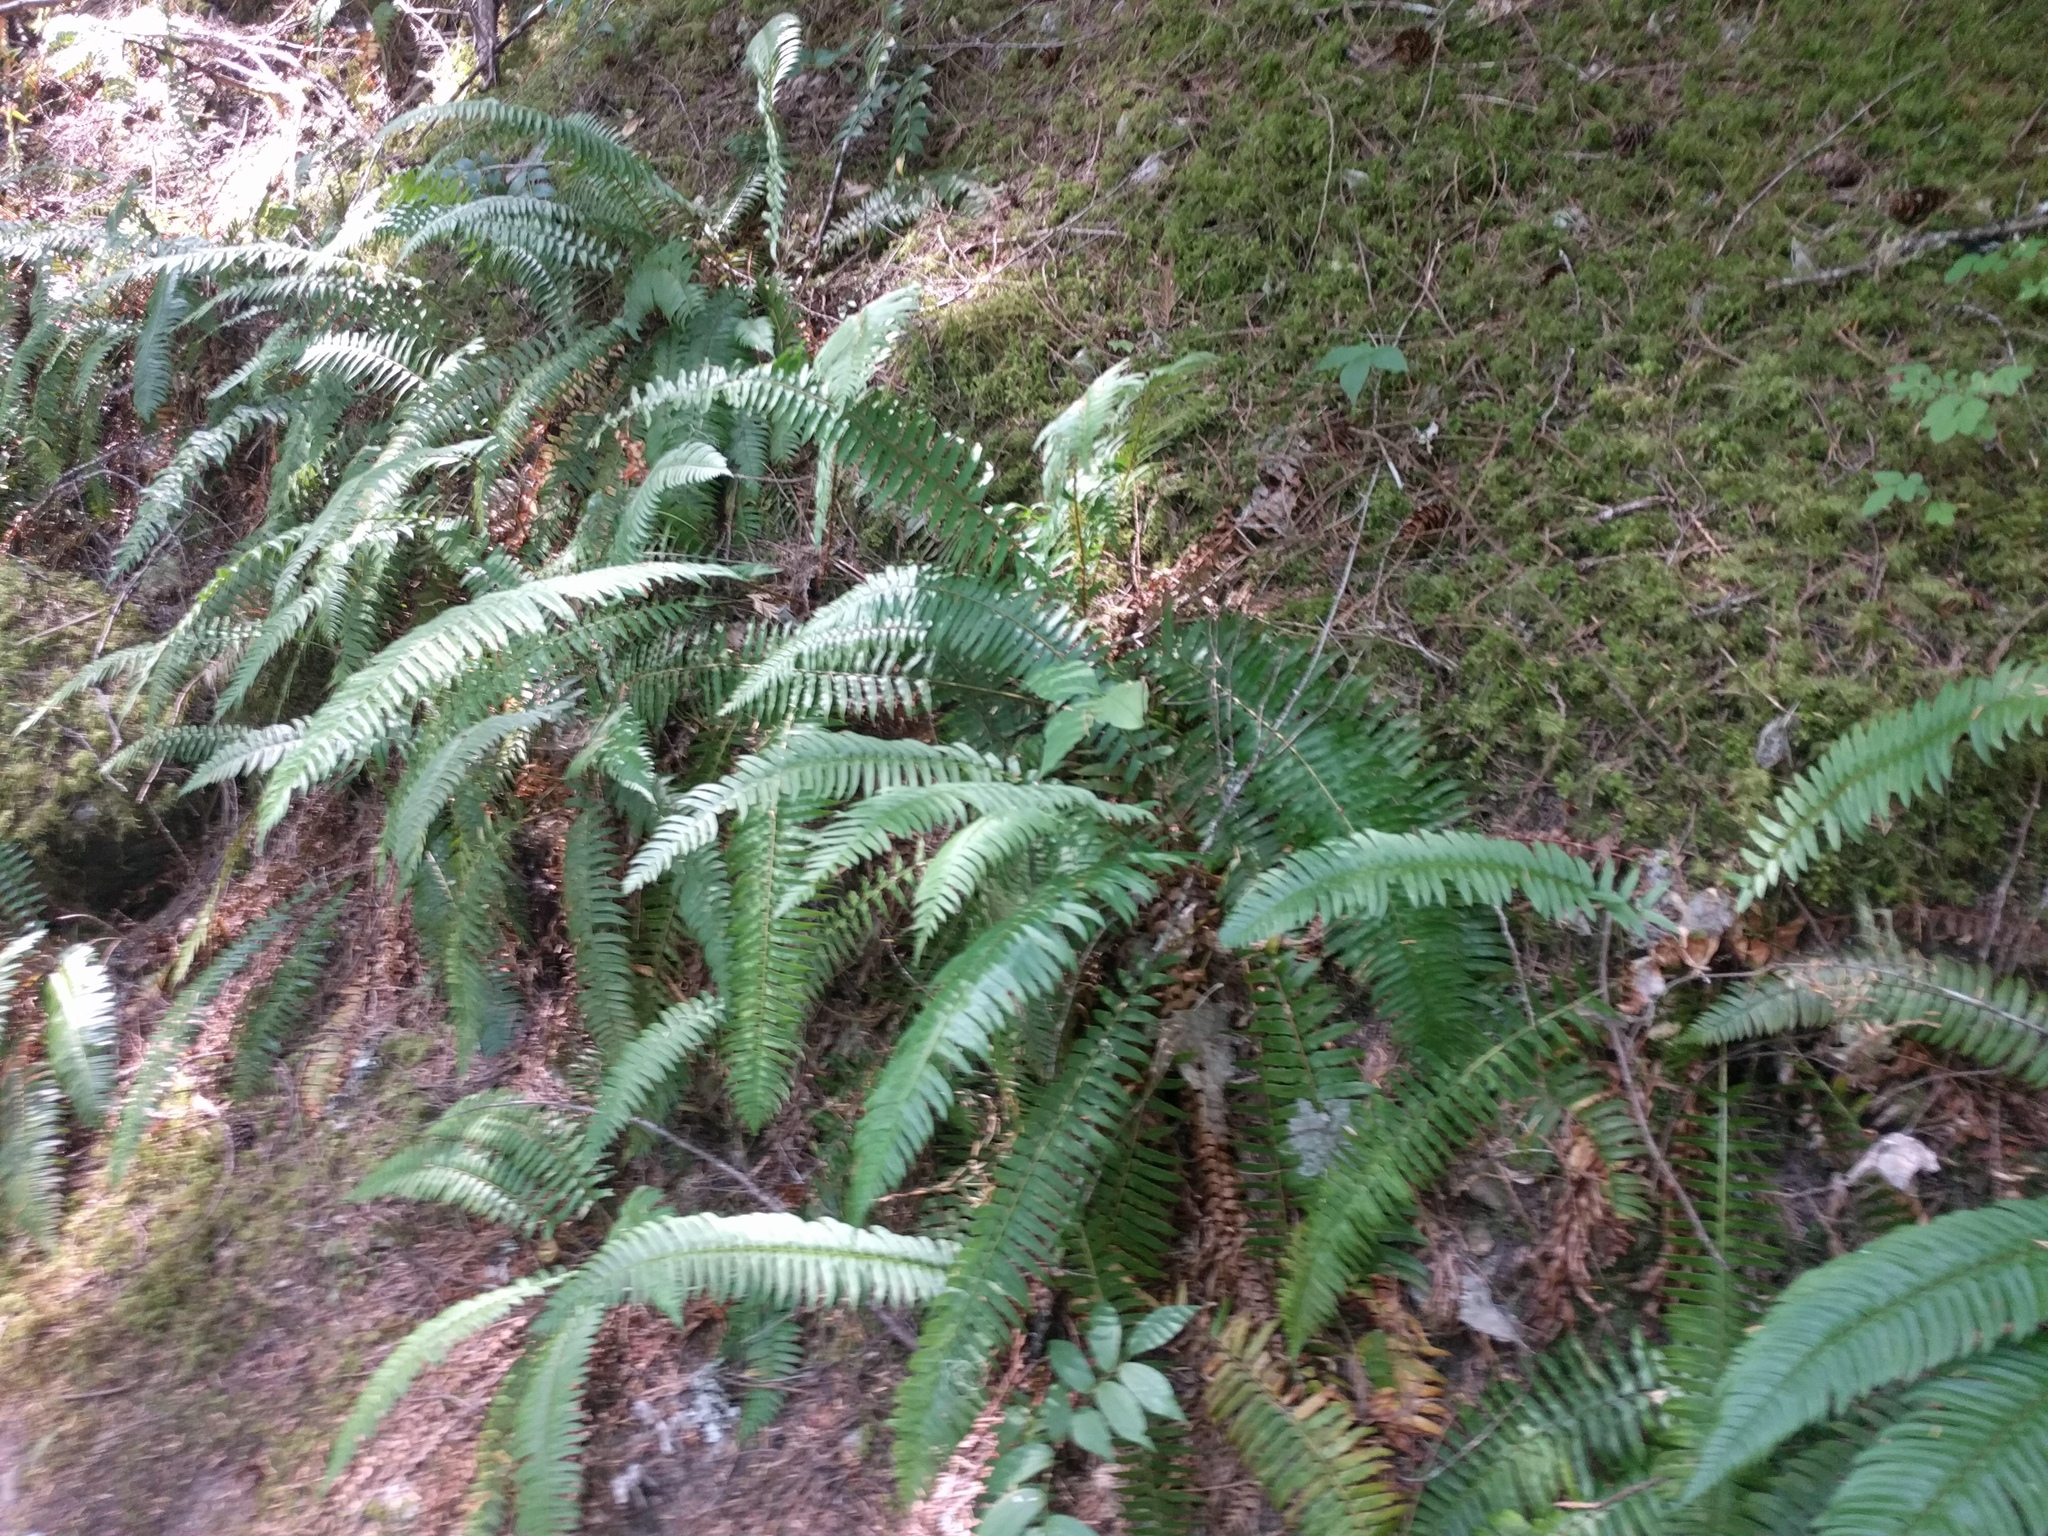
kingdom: Plantae
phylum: Tracheophyta
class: Polypodiopsida
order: Polypodiales
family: Dryopteridaceae
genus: Polystichum
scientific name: Polystichum munitum
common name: Western sword-fern
